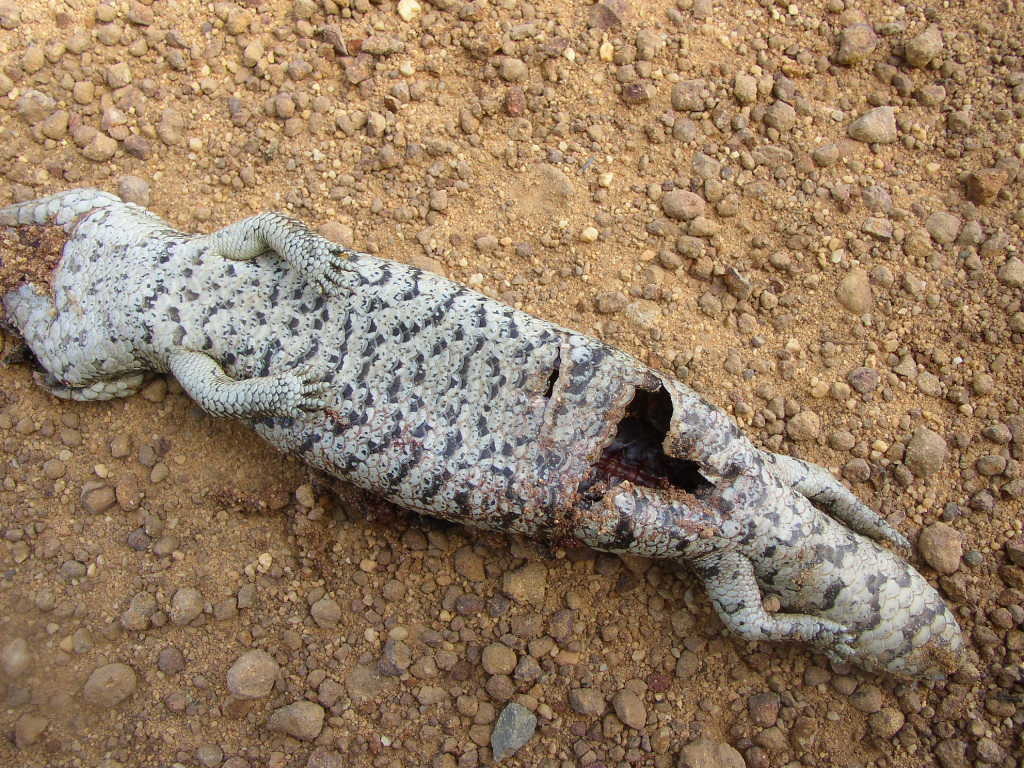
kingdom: Animalia
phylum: Chordata
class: Squamata
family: Scincidae
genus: Tiliqua
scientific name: Tiliqua rugosa
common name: Pinecone lizard
